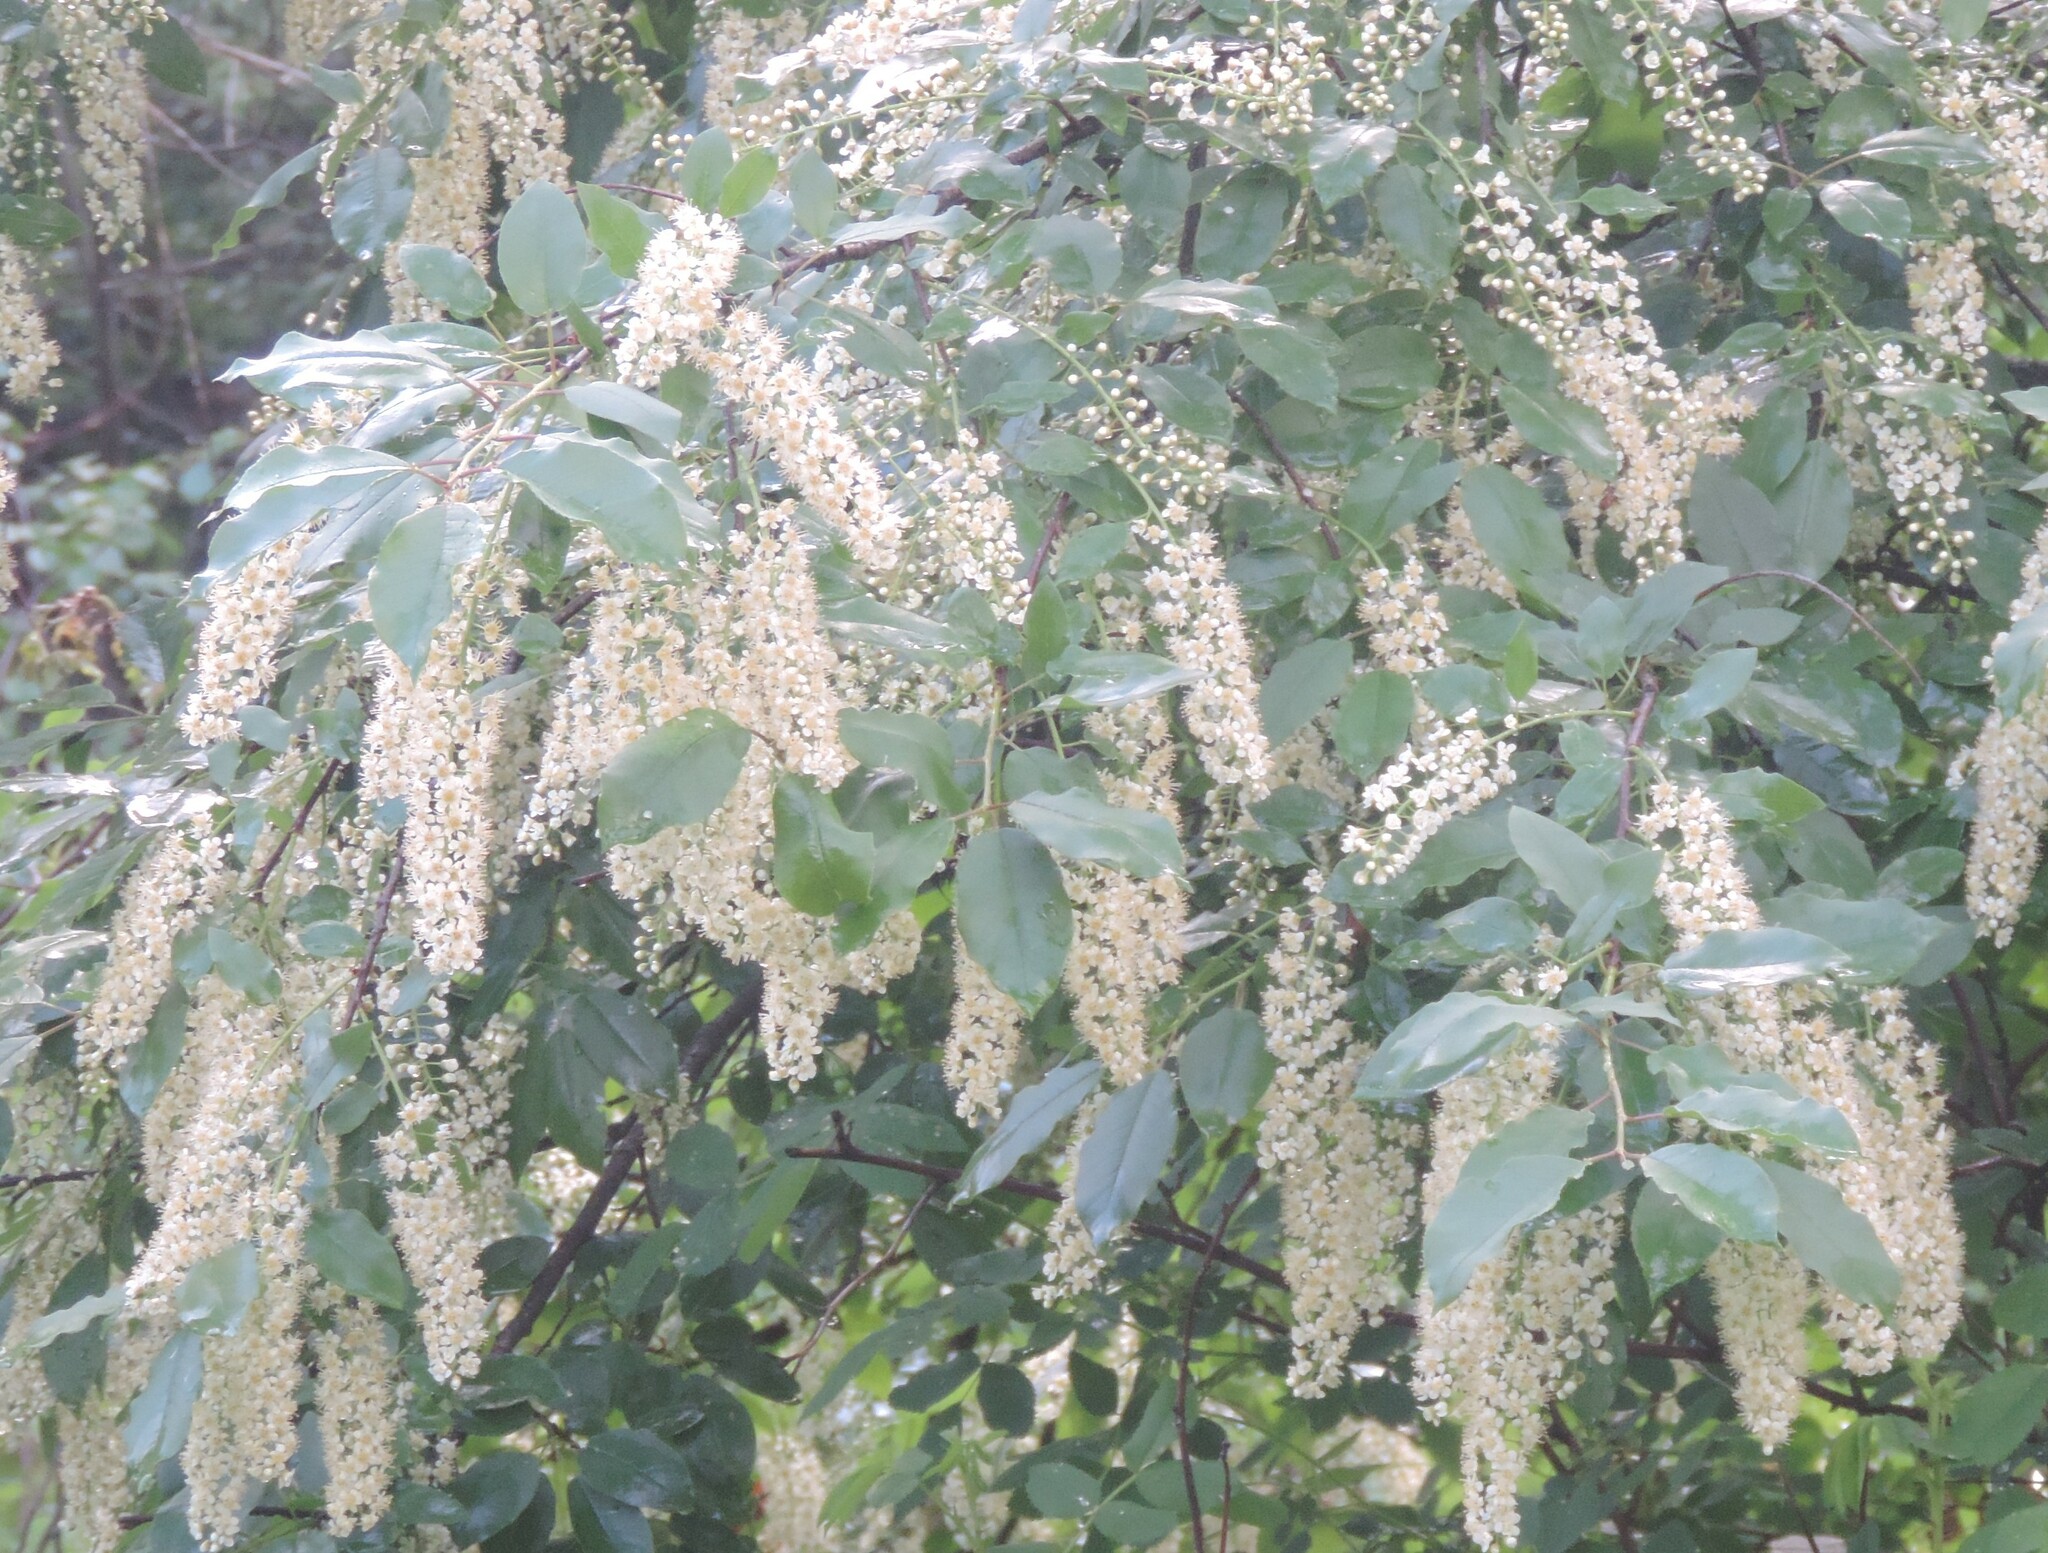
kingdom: Plantae
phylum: Tracheophyta
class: Magnoliopsida
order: Rosales
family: Rosaceae
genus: Prunus
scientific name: Prunus virginiana
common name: Chokecherry
